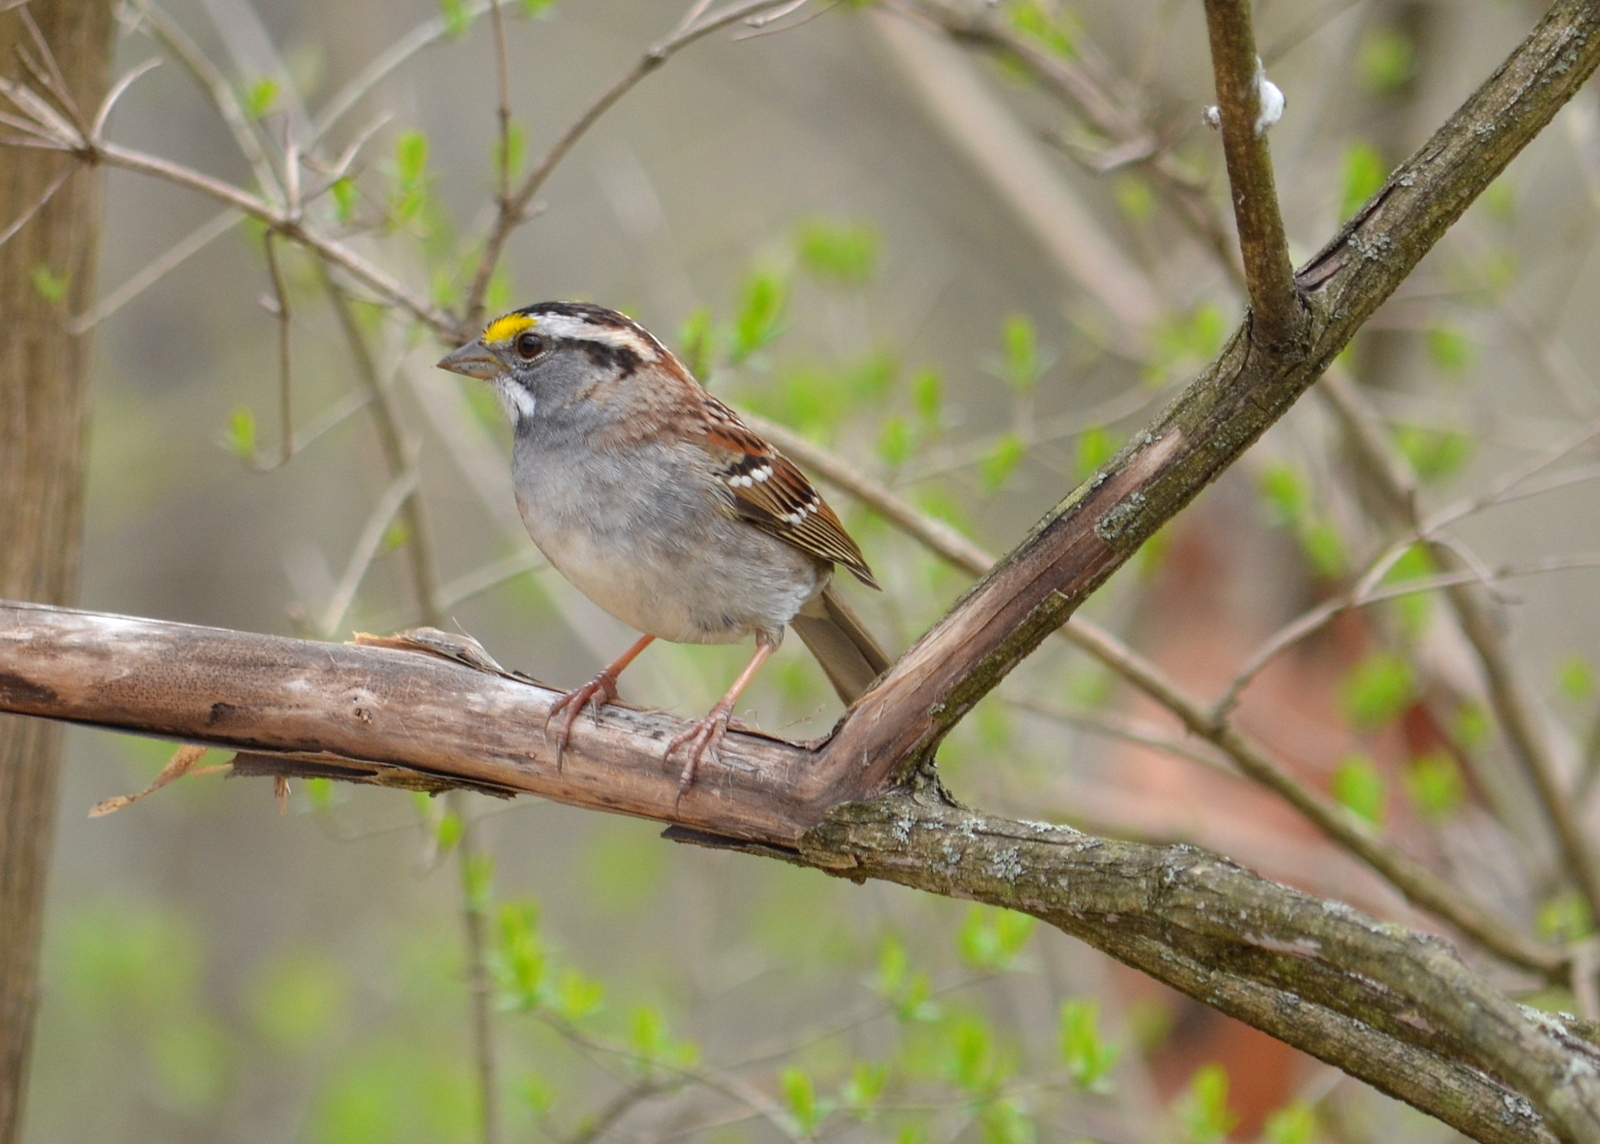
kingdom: Animalia
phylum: Chordata
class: Aves
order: Passeriformes
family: Passerellidae
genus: Zonotrichia
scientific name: Zonotrichia albicollis
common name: White-throated sparrow
